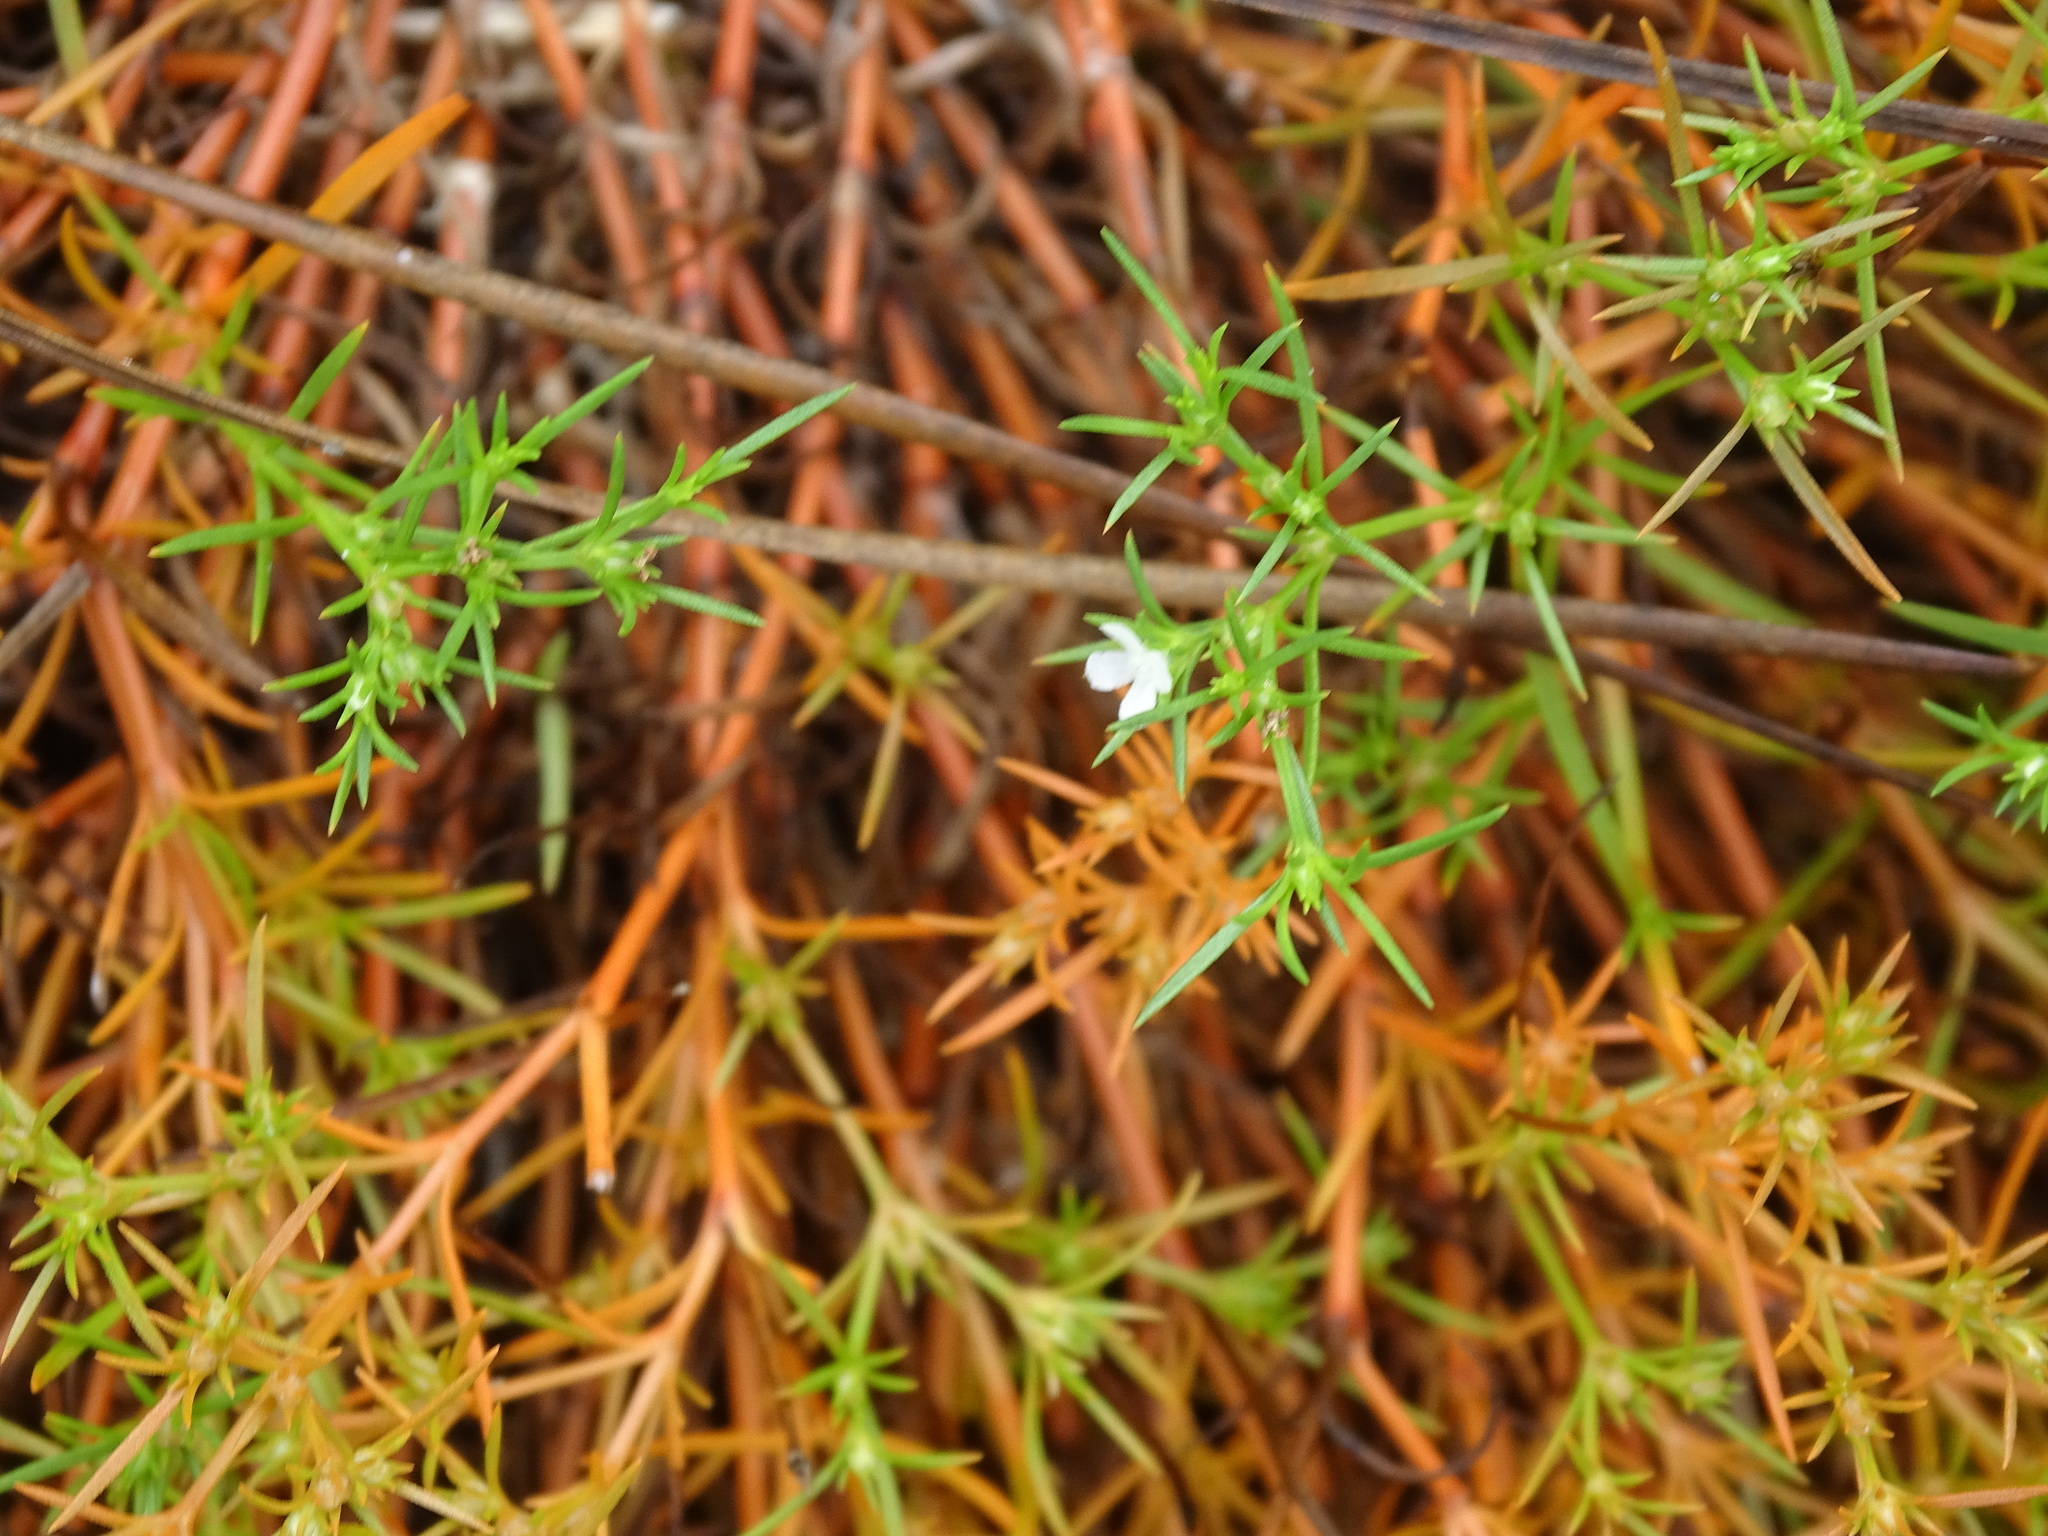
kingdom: Plantae
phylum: Tracheophyta
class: Magnoliopsida
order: Lamiales
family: Tetrachondraceae
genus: Polypremum
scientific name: Polypremum procumbens
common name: Juniper-leaf
